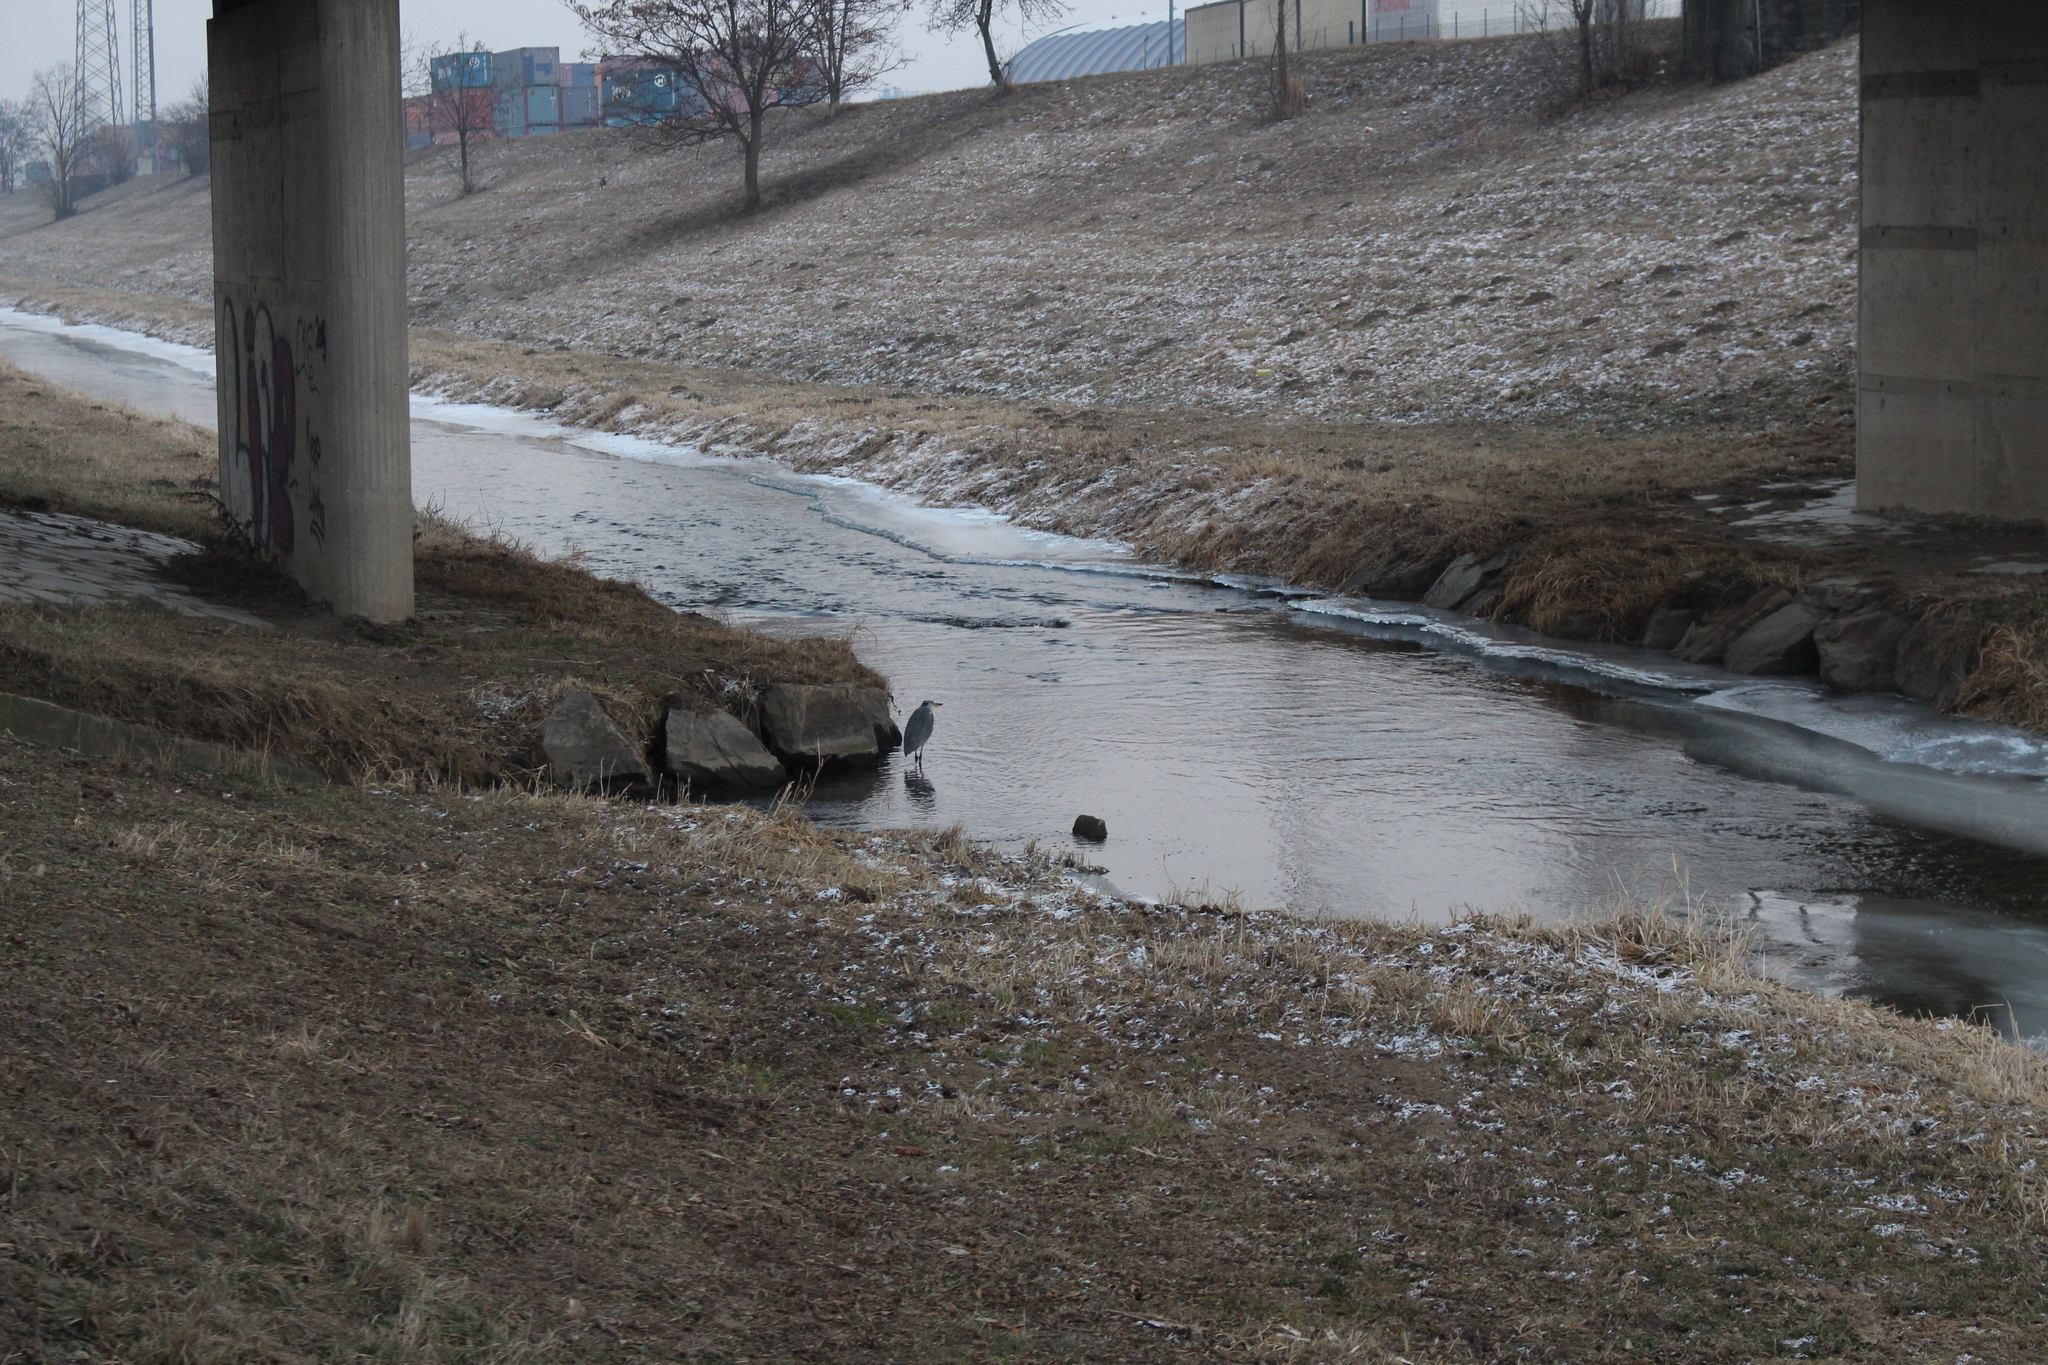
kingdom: Animalia
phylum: Chordata
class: Aves
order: Pelecaniformes
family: Ardeidae
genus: Ardea
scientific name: Ardea cinerea
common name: Grey heron
